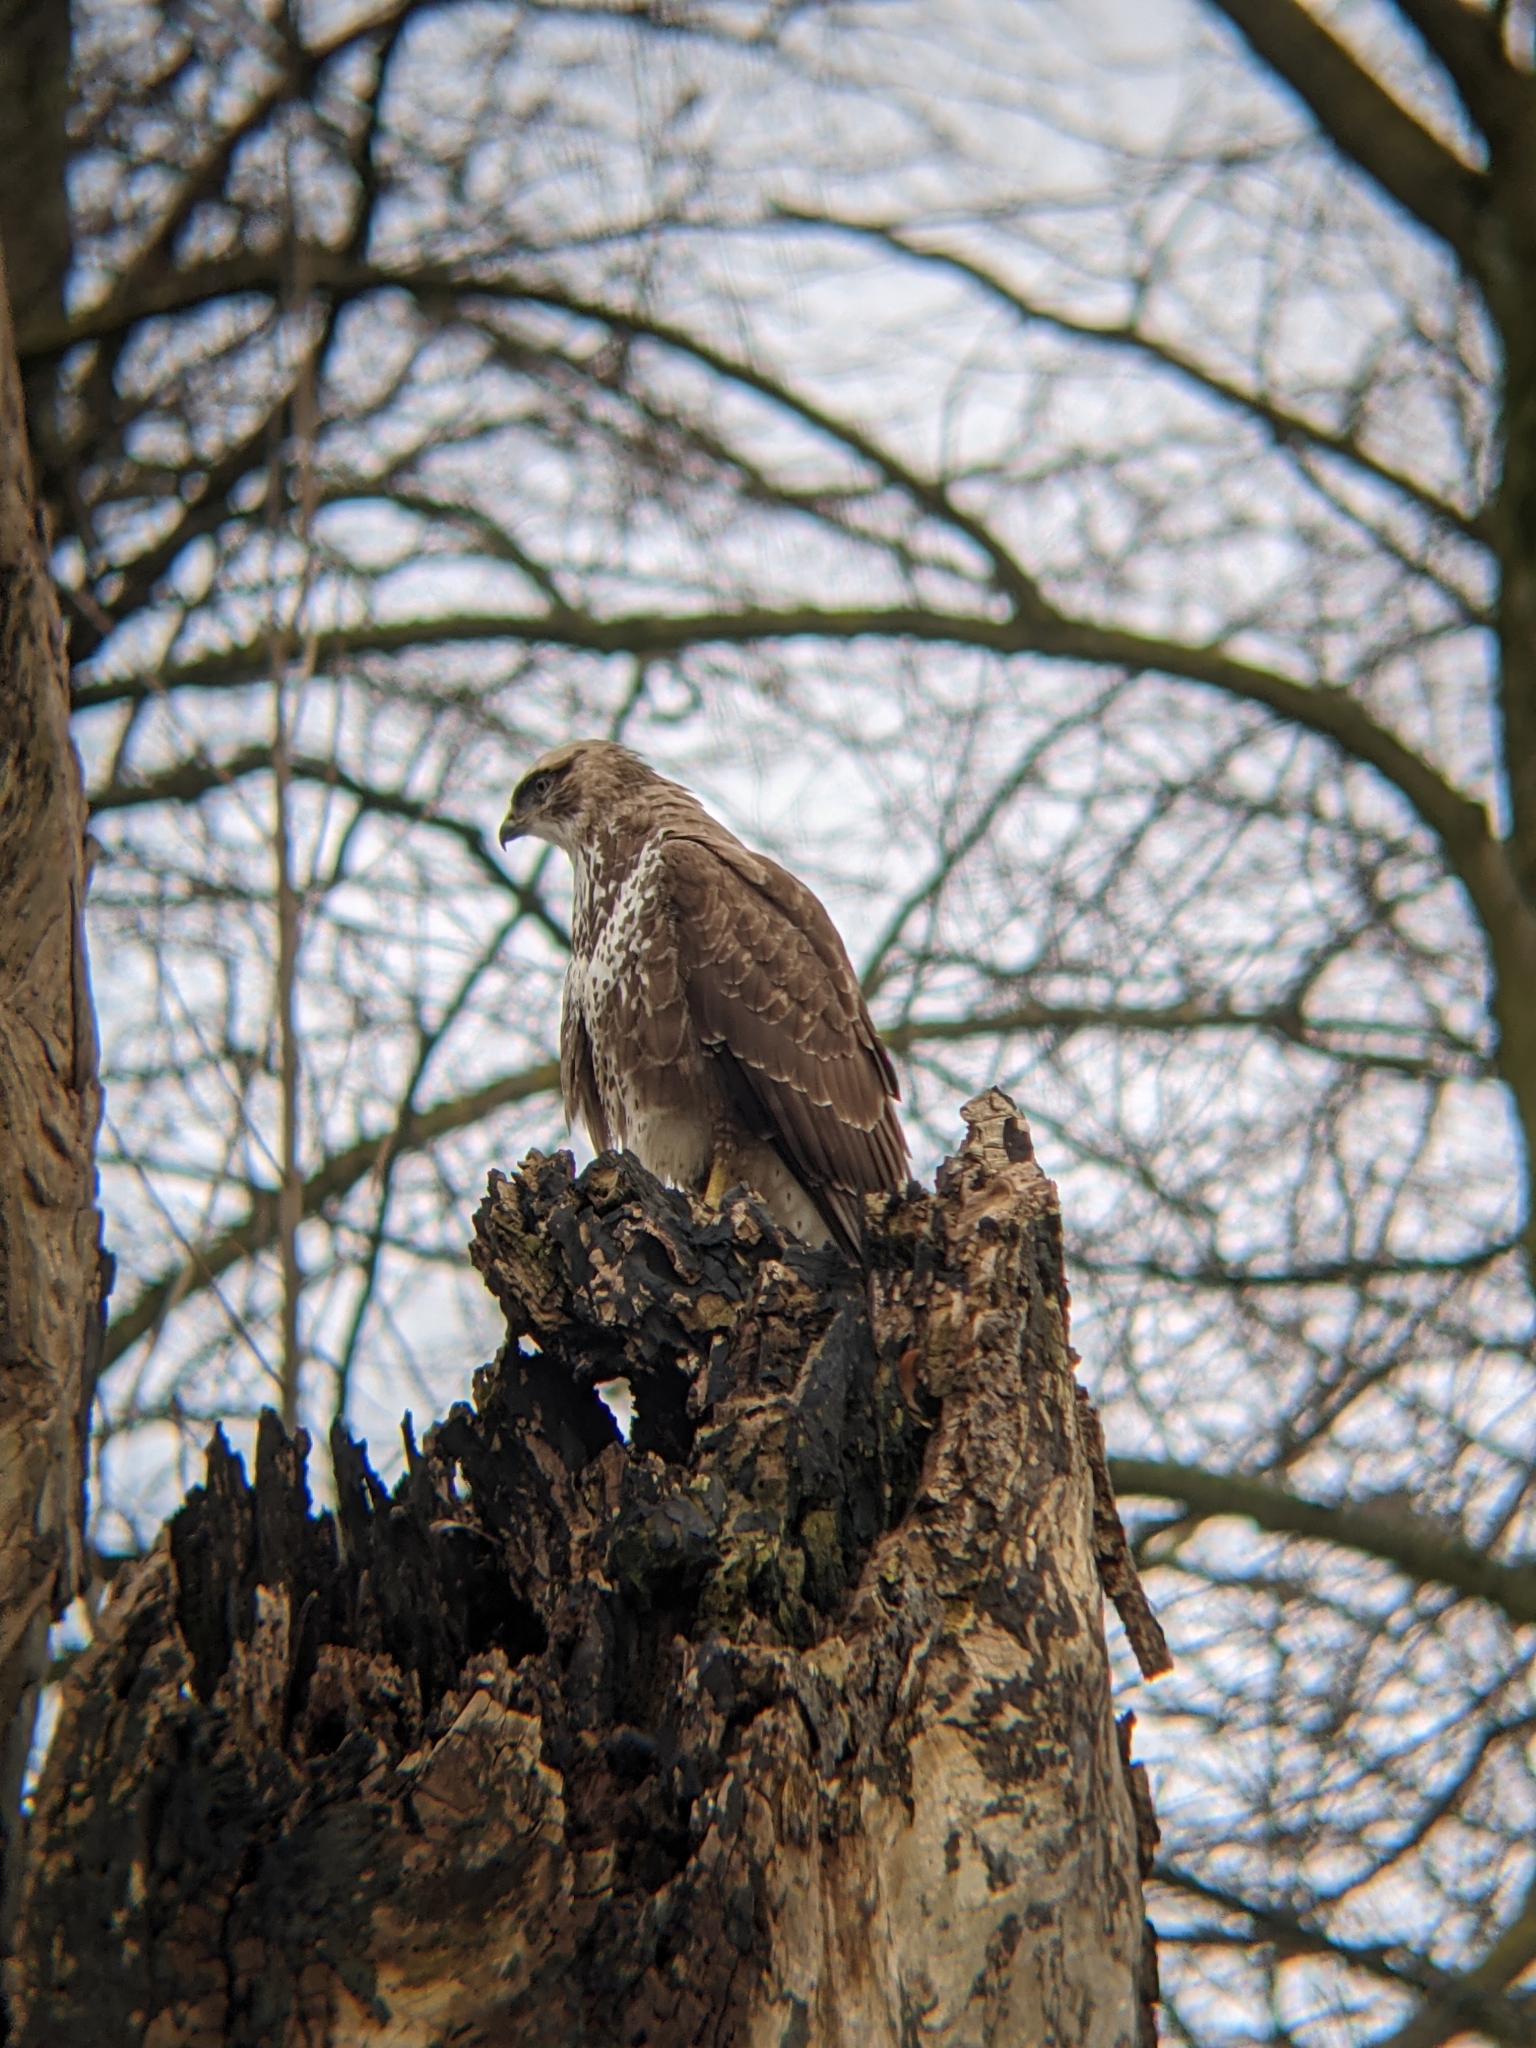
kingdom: Animalia
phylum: Chordata
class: Aves
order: Accipitriformes
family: Accipitridae
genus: Buteo
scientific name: Buteo buteo
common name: Common buzzard
